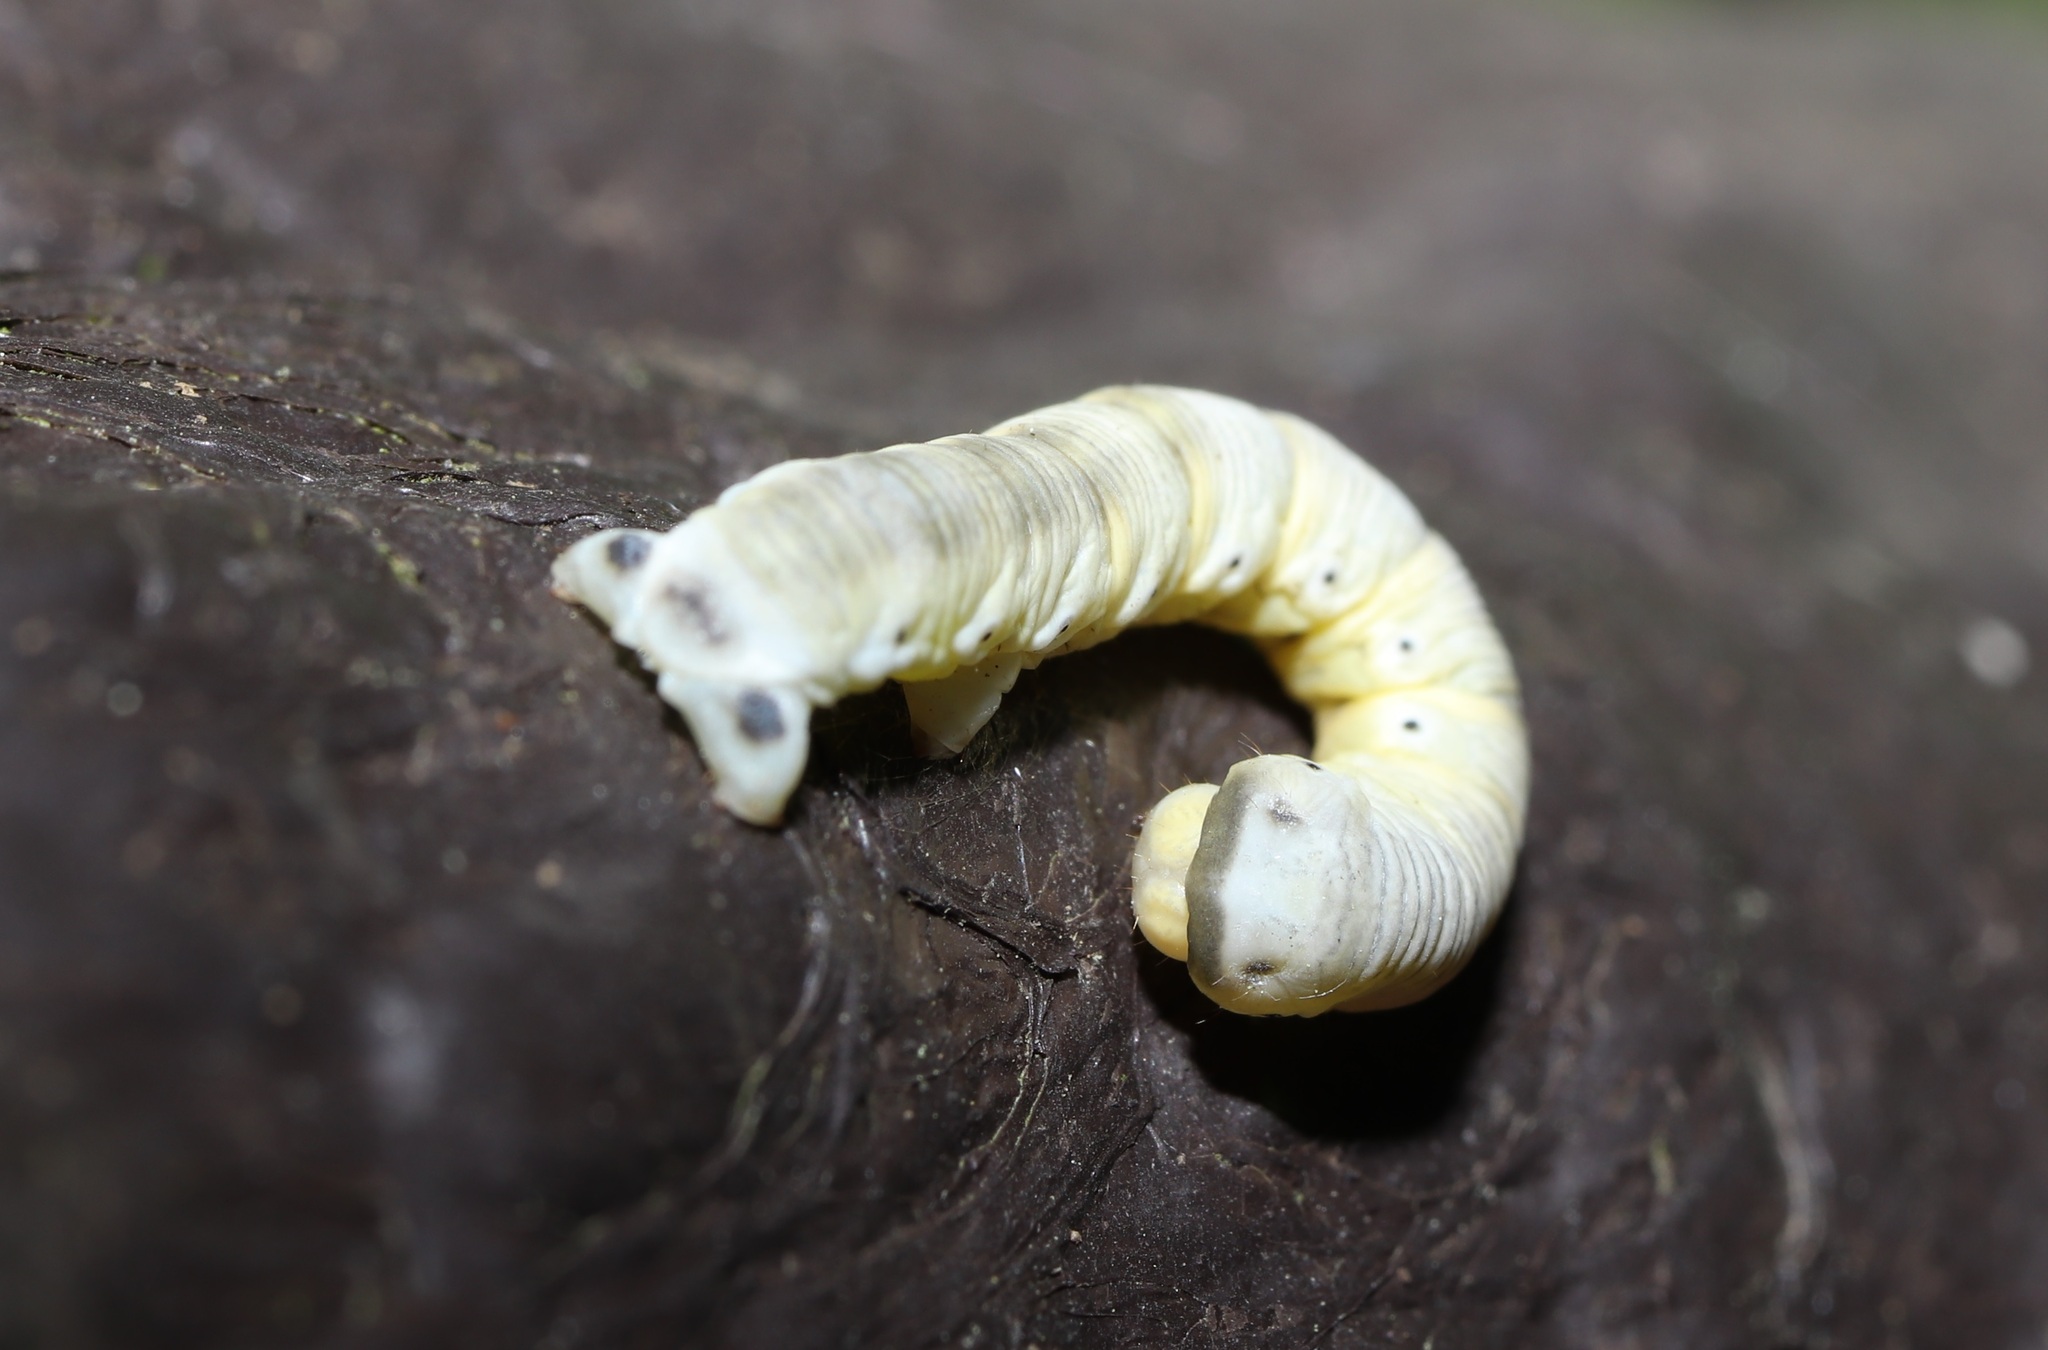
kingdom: Animalia
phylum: Arthropoda
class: Insecta
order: Lepidoptera
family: Geometridae
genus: Wilemania
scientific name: Wilemania nitobei
